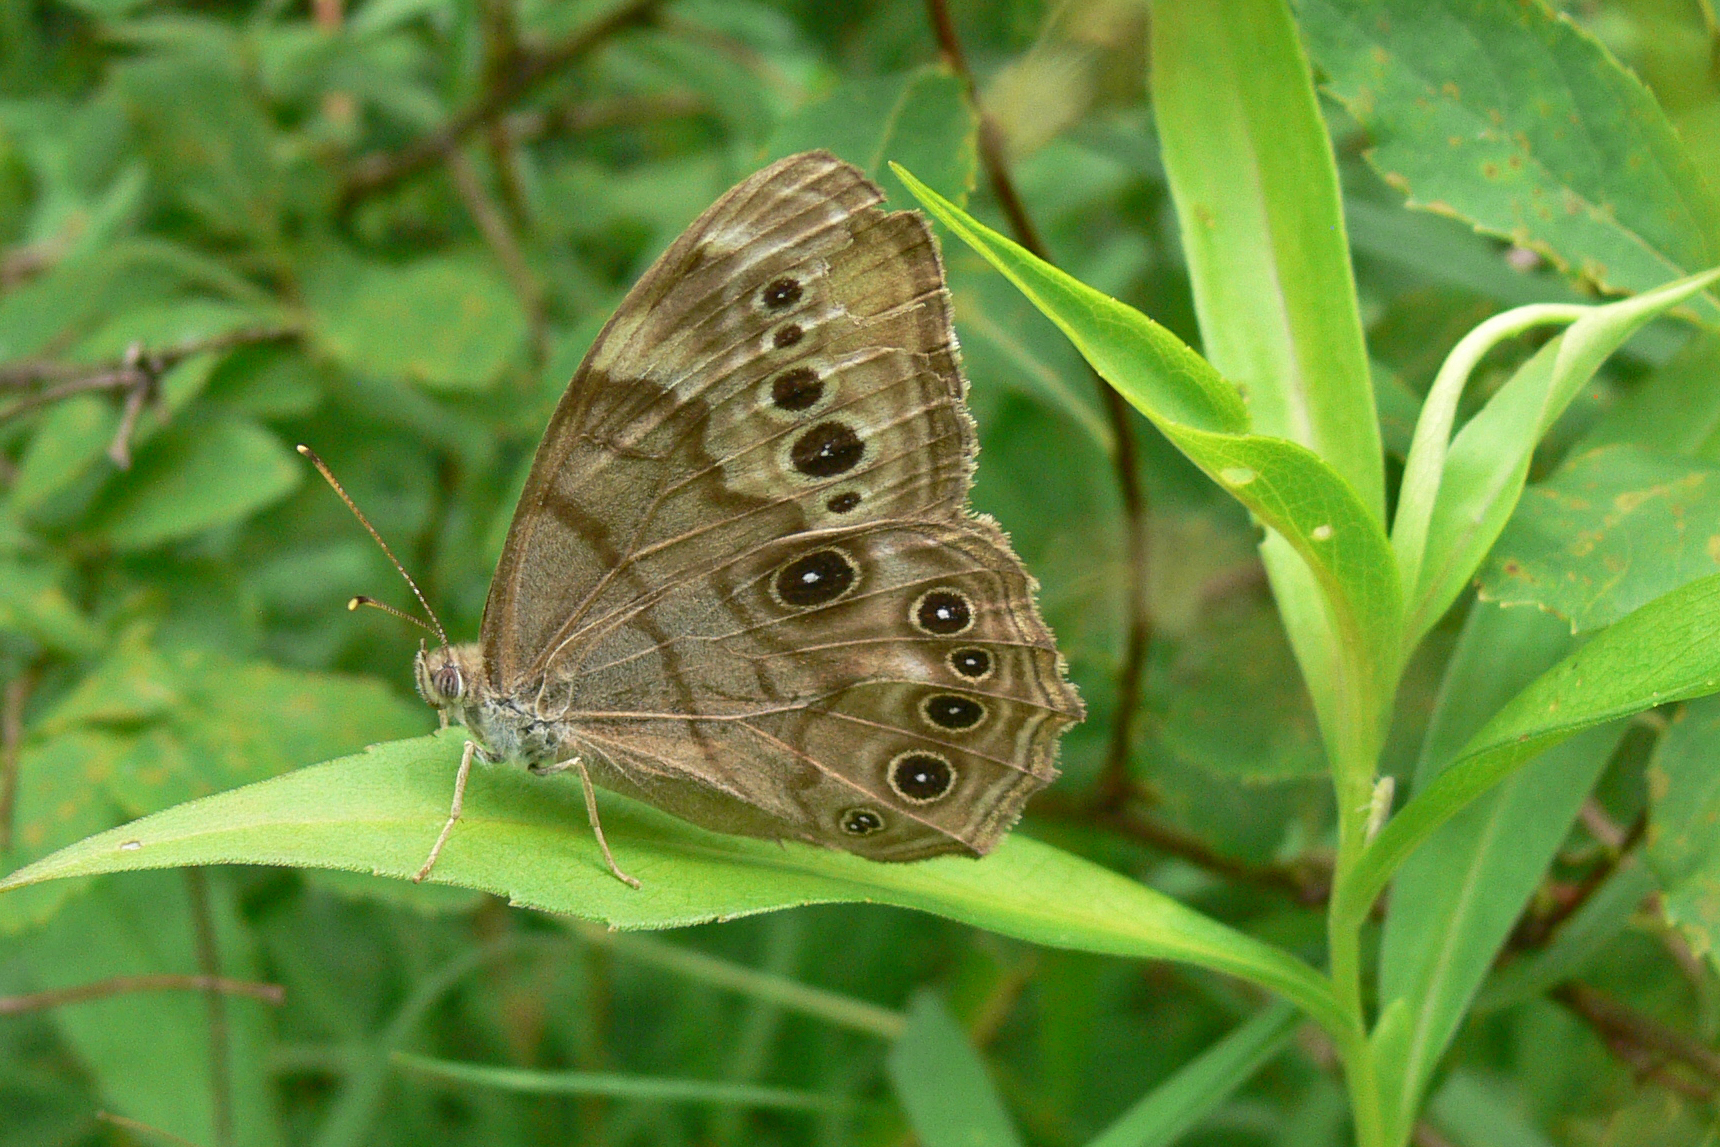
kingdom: Animalia
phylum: Arthropoda
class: Insecta
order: Lepidoptera
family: Nymphalidae
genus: Lethe
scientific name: Lethe anthedon
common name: Northern pearly-eye
